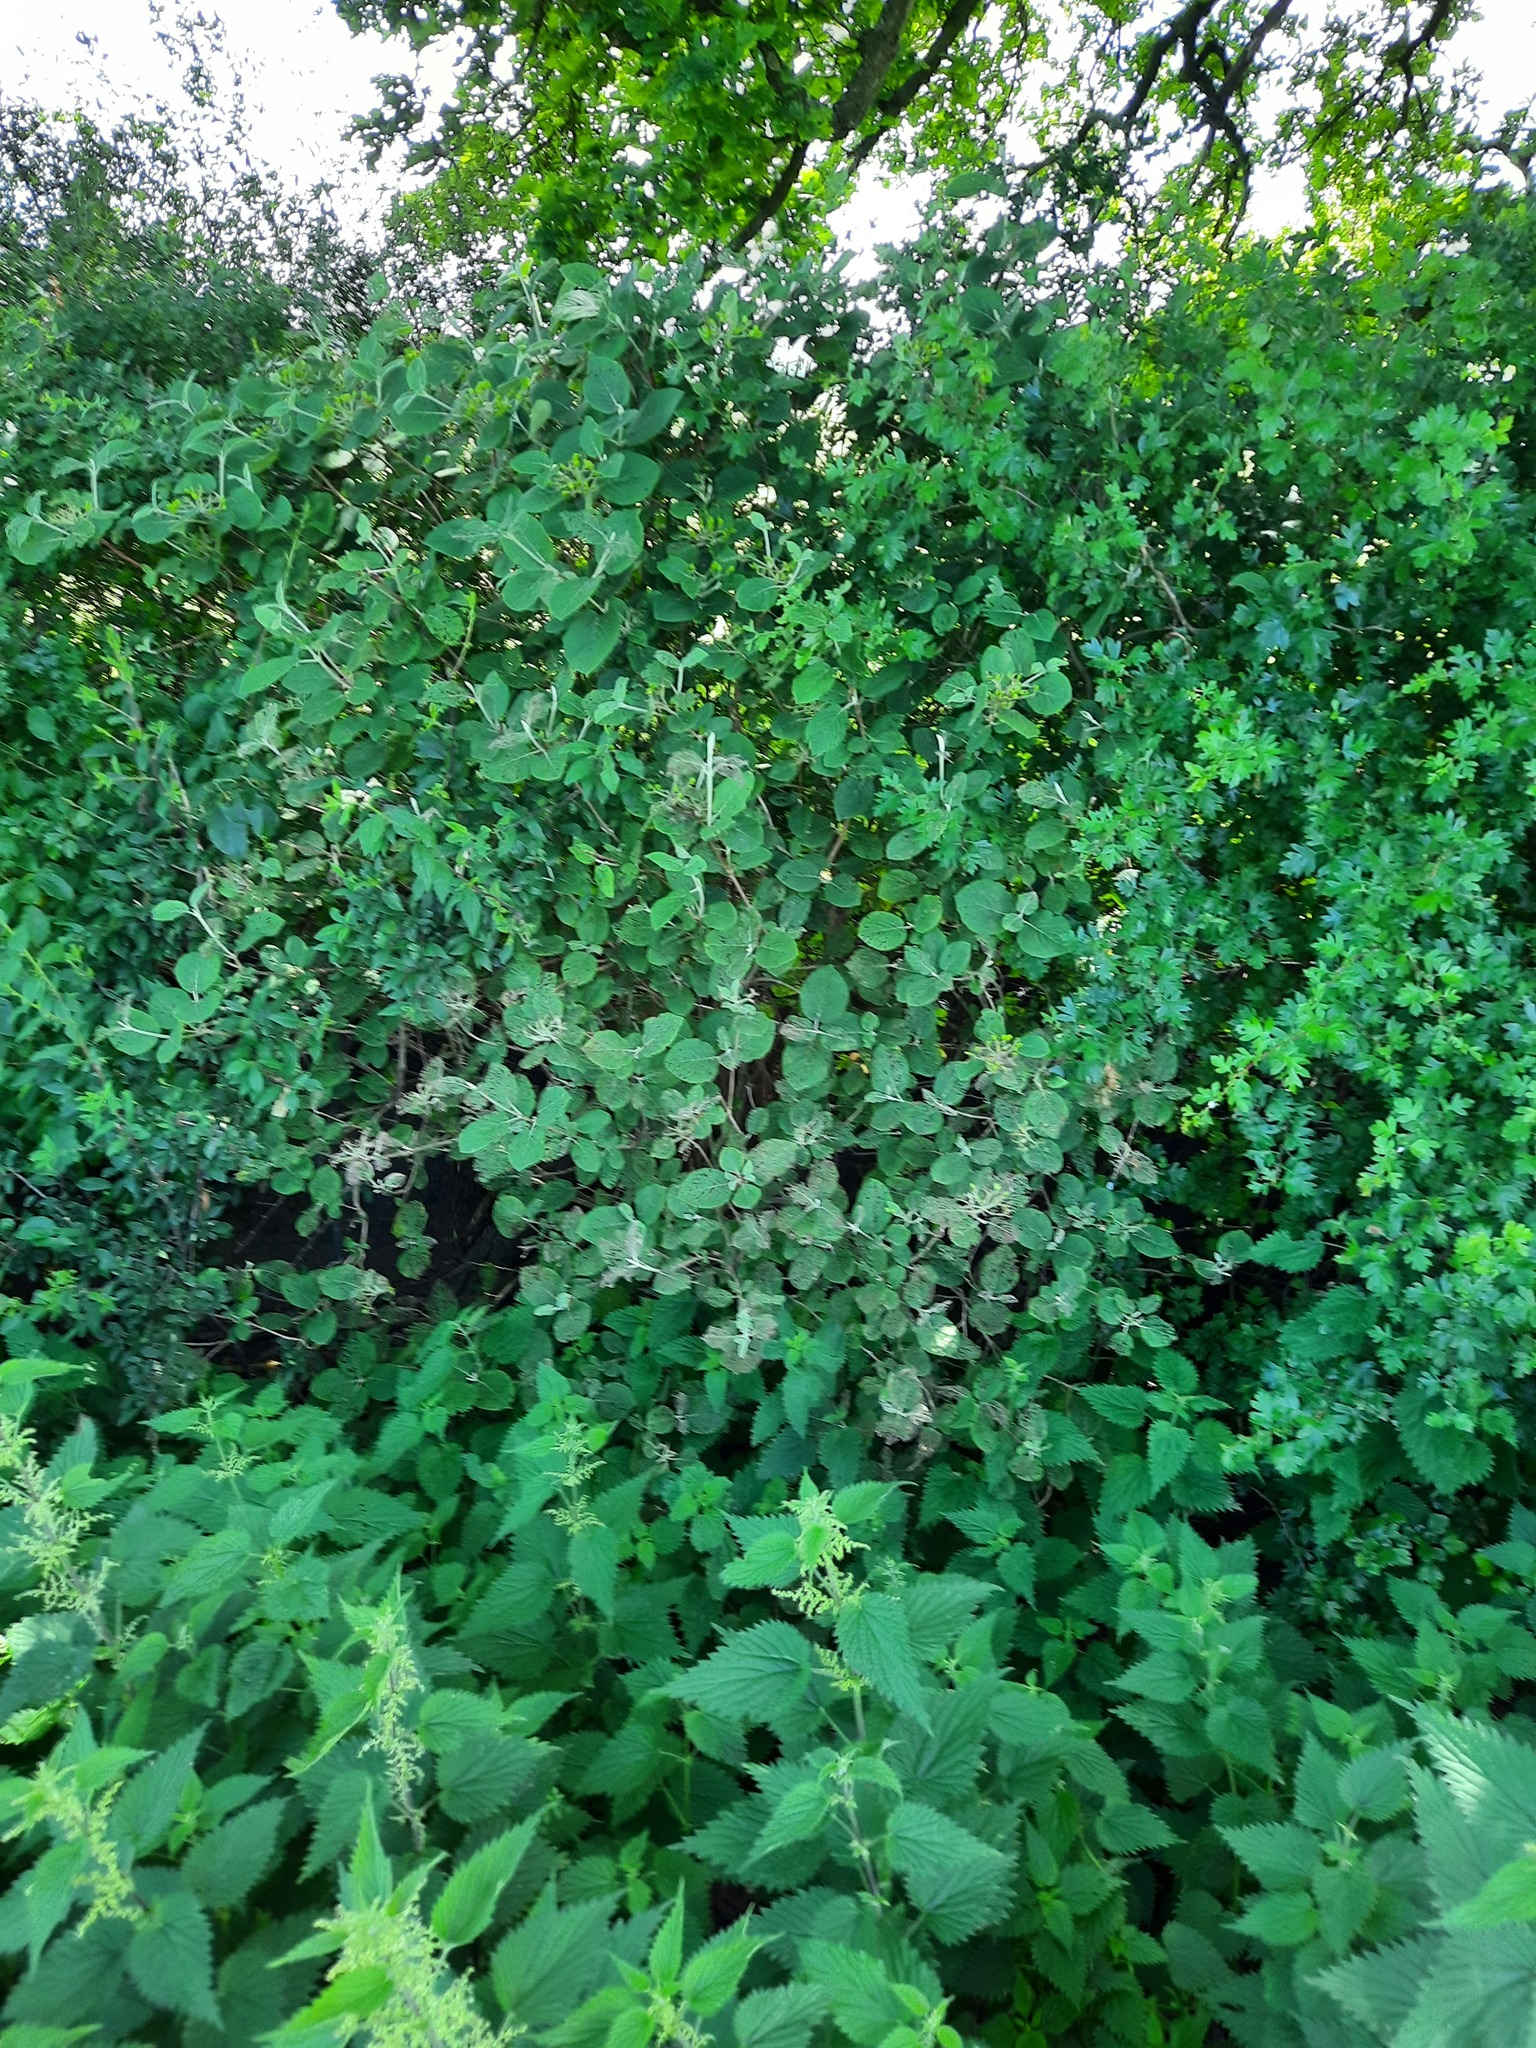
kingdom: Plantae
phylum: Tracheophyta
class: Magnoliopsida
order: Dipsacales
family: Viburnaceae
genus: Viburnum
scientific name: Viburnum lantana
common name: Wayfaring tree
